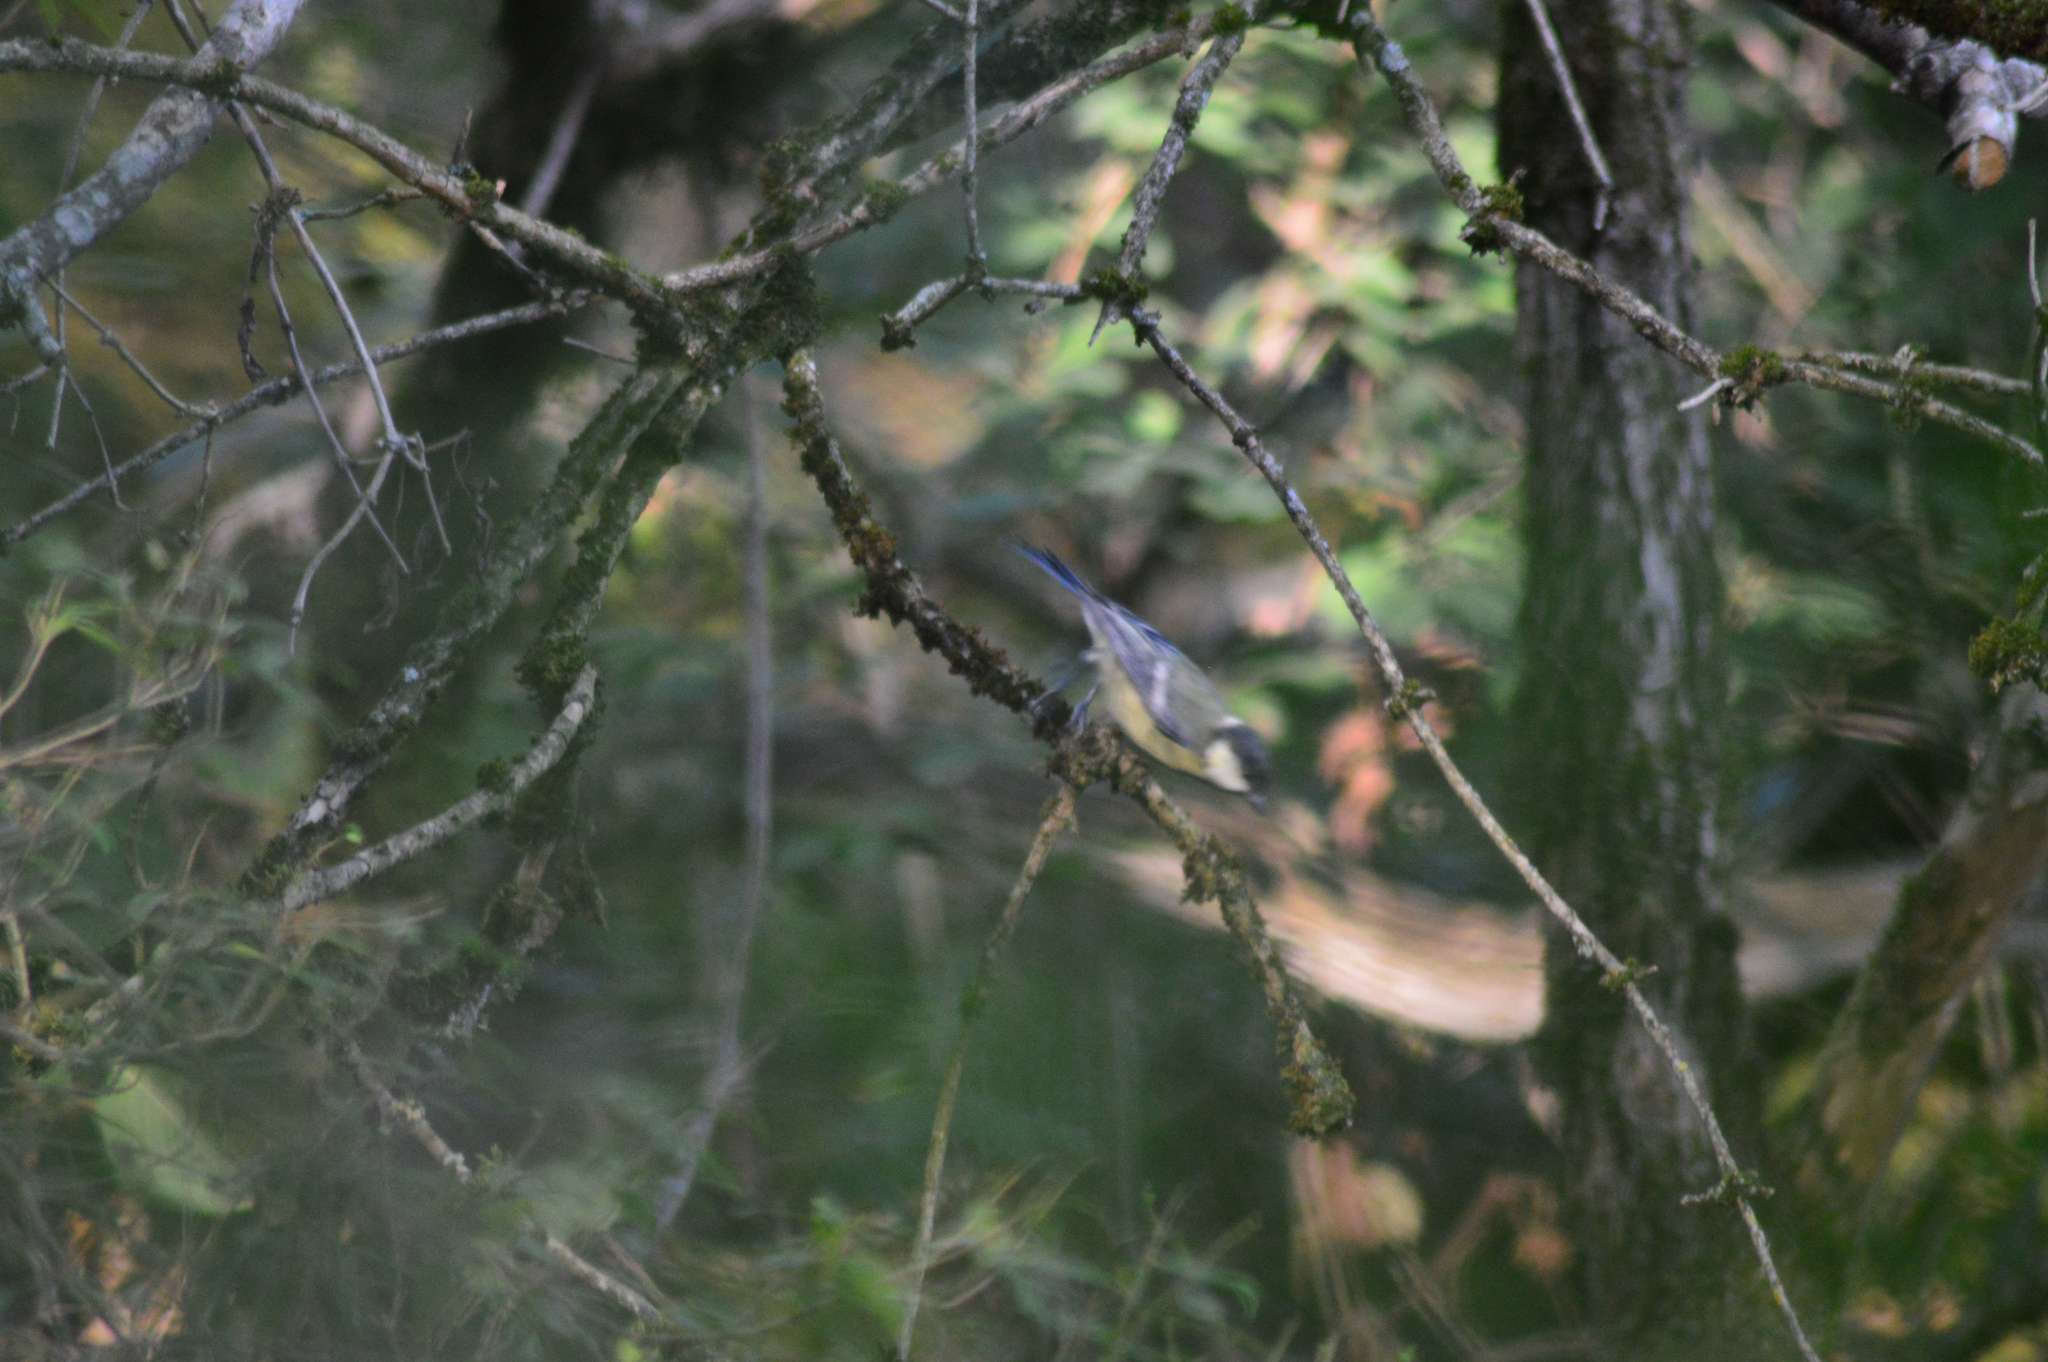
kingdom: Animalia
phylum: Chordata
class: Aves
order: Passeriformes
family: Paridae
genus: Parus
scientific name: Parus major
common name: Great tit
